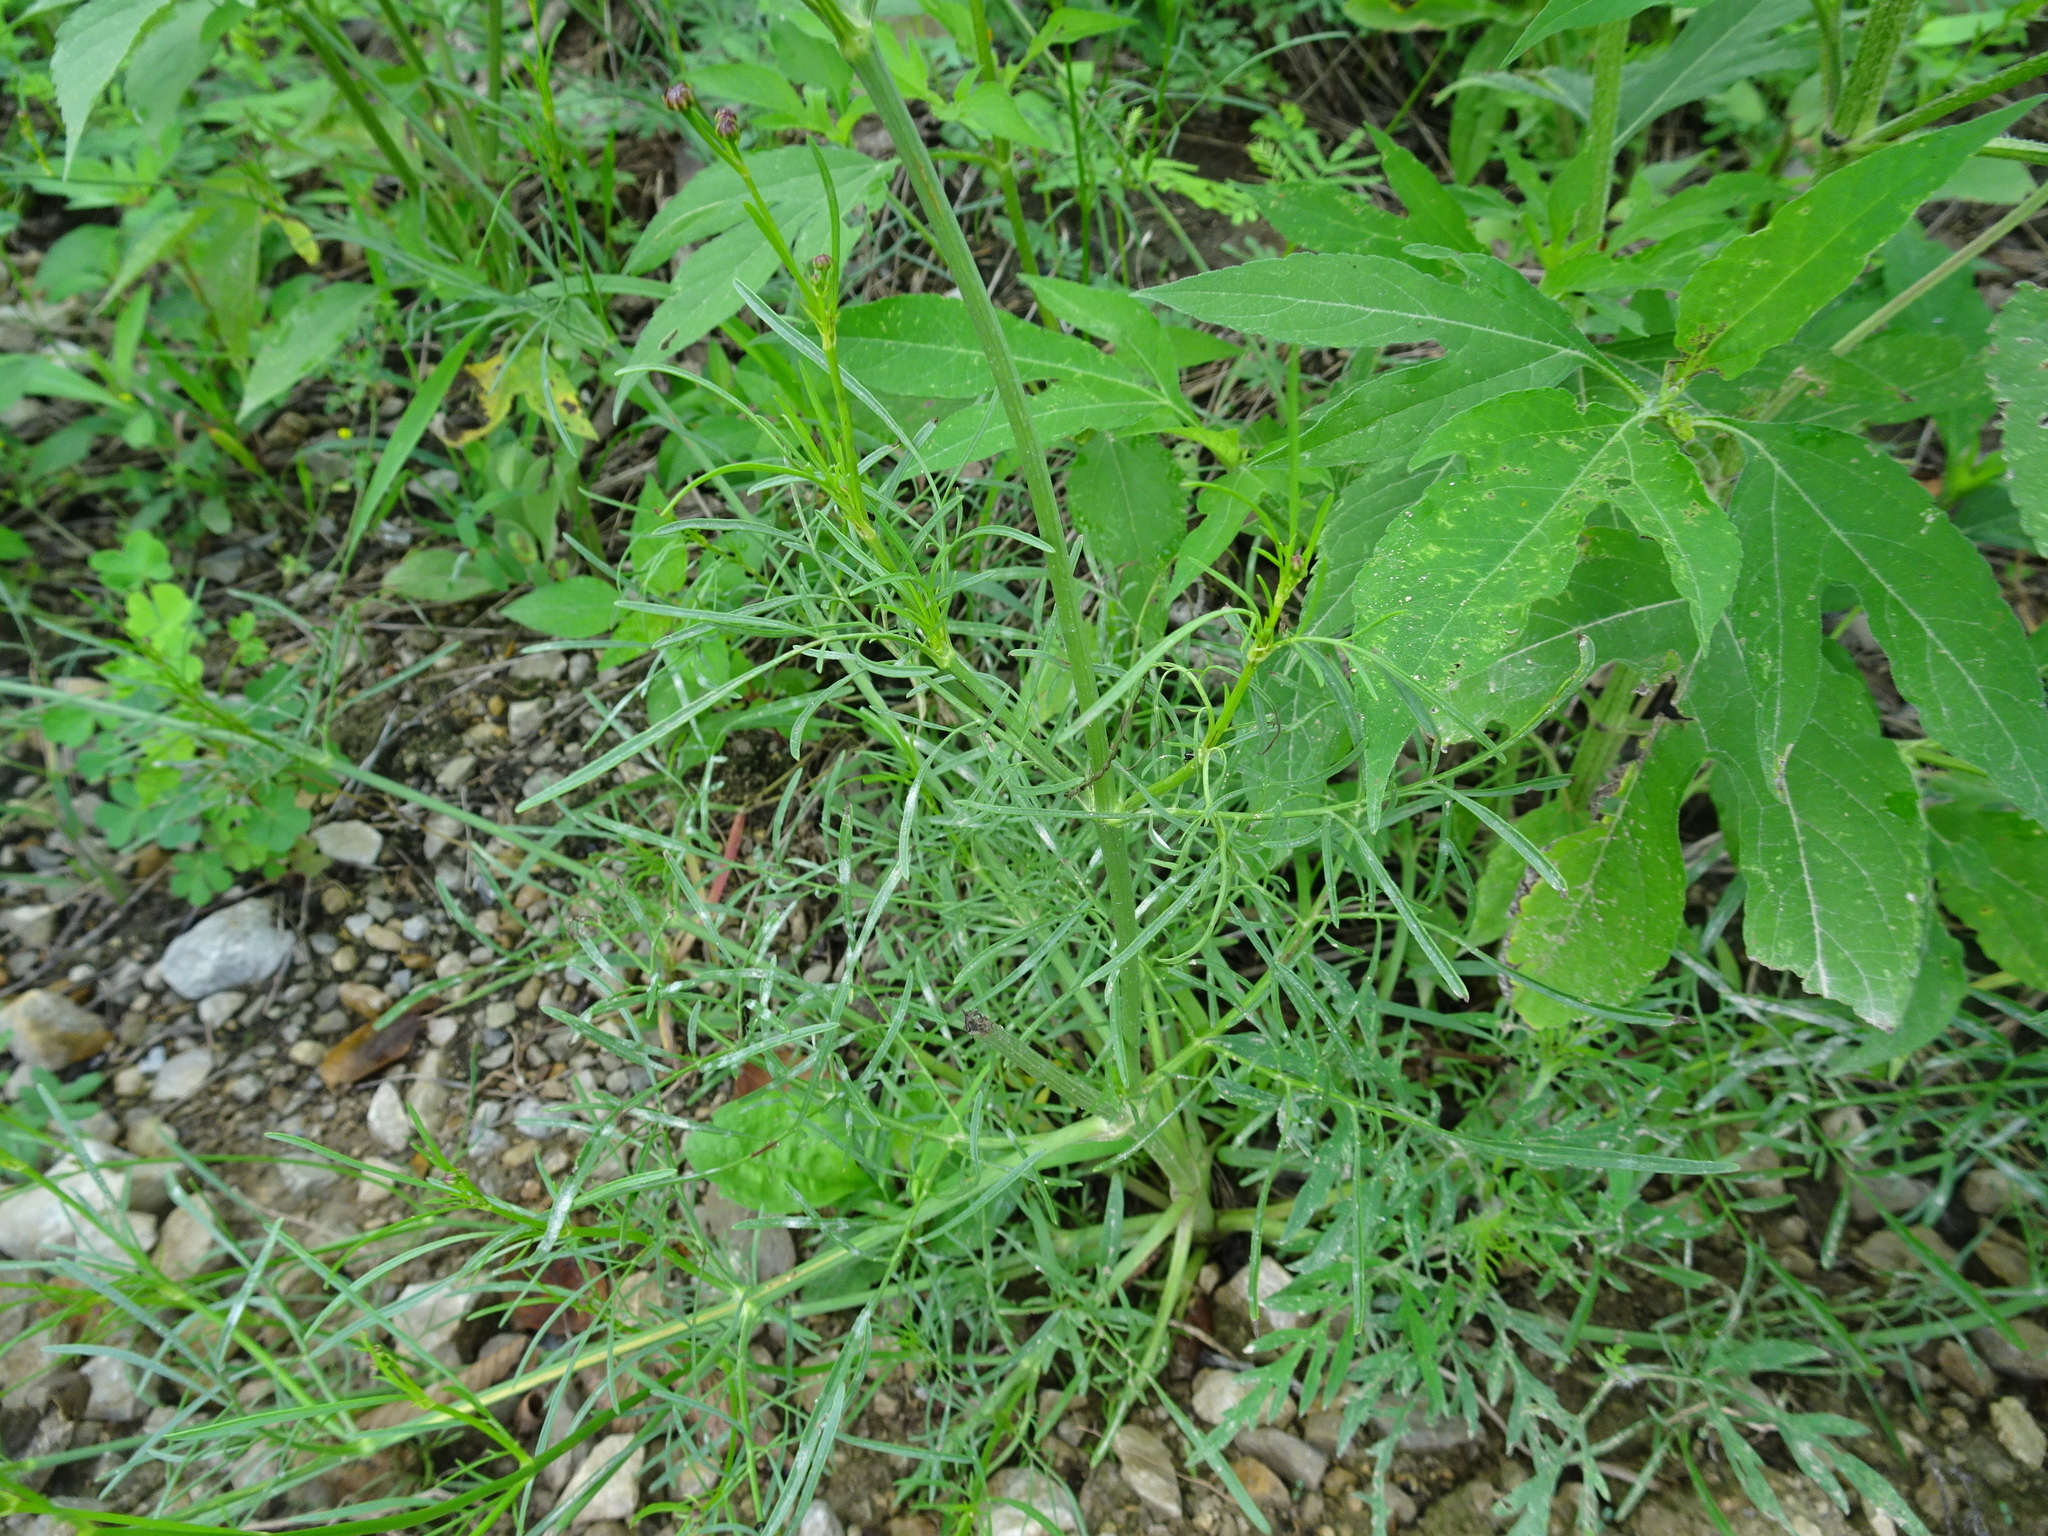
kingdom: Plantae
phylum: Tracheophyta
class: Magnoliopsida
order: Asterales
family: Asteraceae
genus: Coreopsis
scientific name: Coreopsis tinctoria
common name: Garden tickseed
